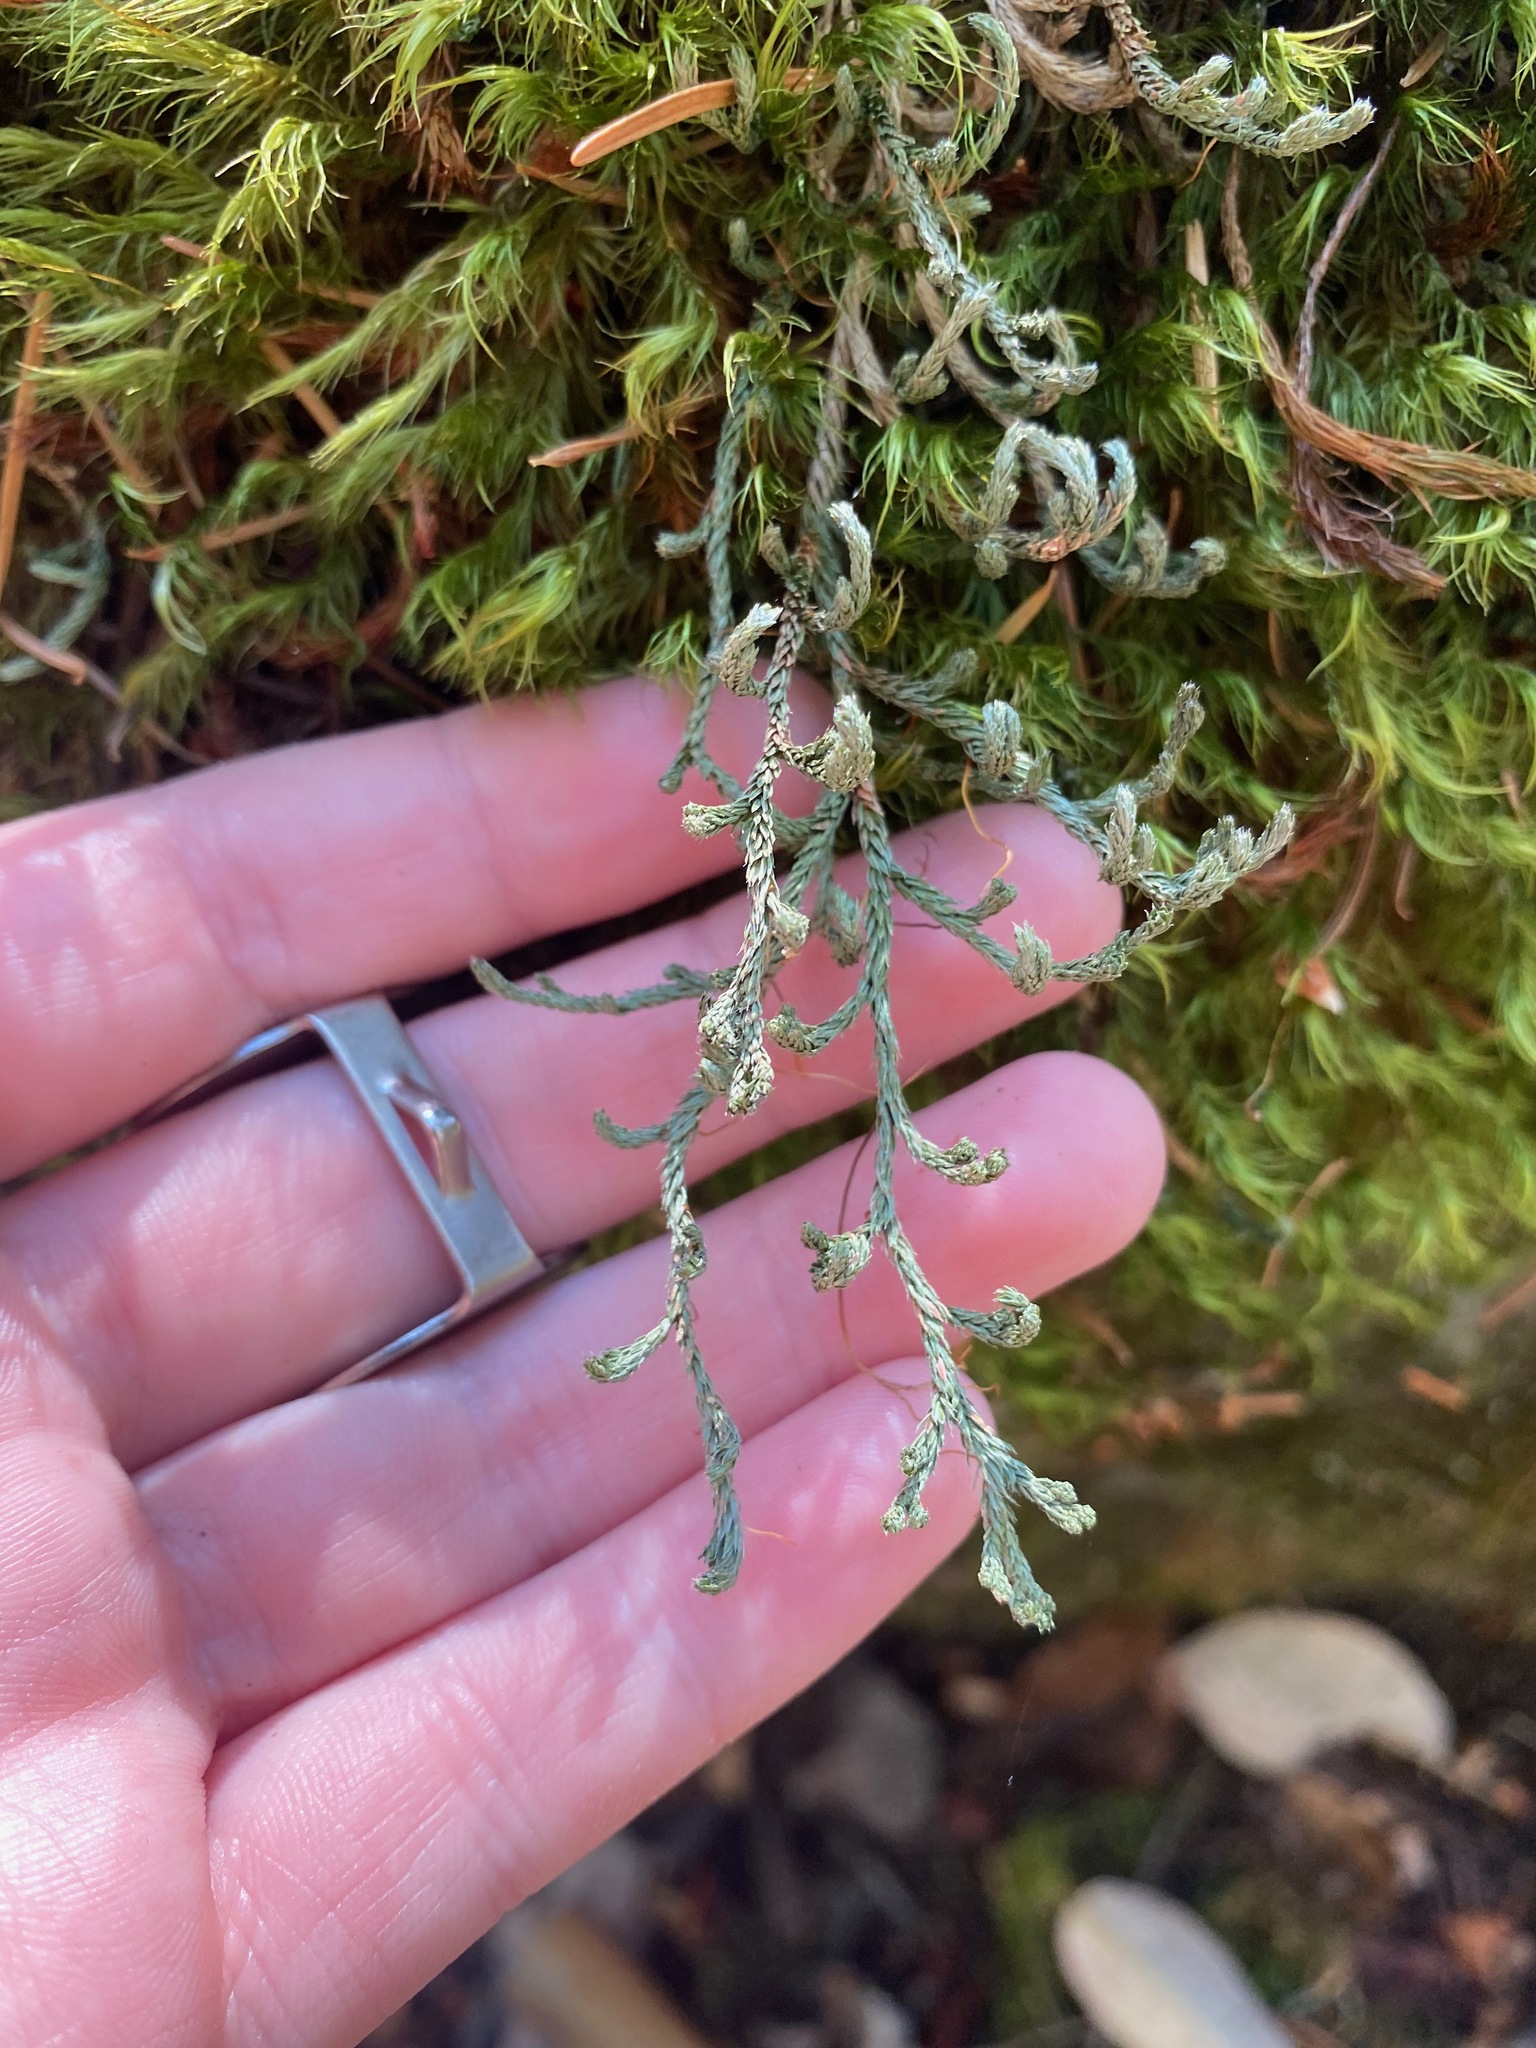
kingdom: Plantae
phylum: Tracheophyta
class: Lycopodiopsida
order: Selaginellales
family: Selaginellaceae
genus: Selaginella
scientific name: Selaginella wallacei
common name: Wallace's selaginella
